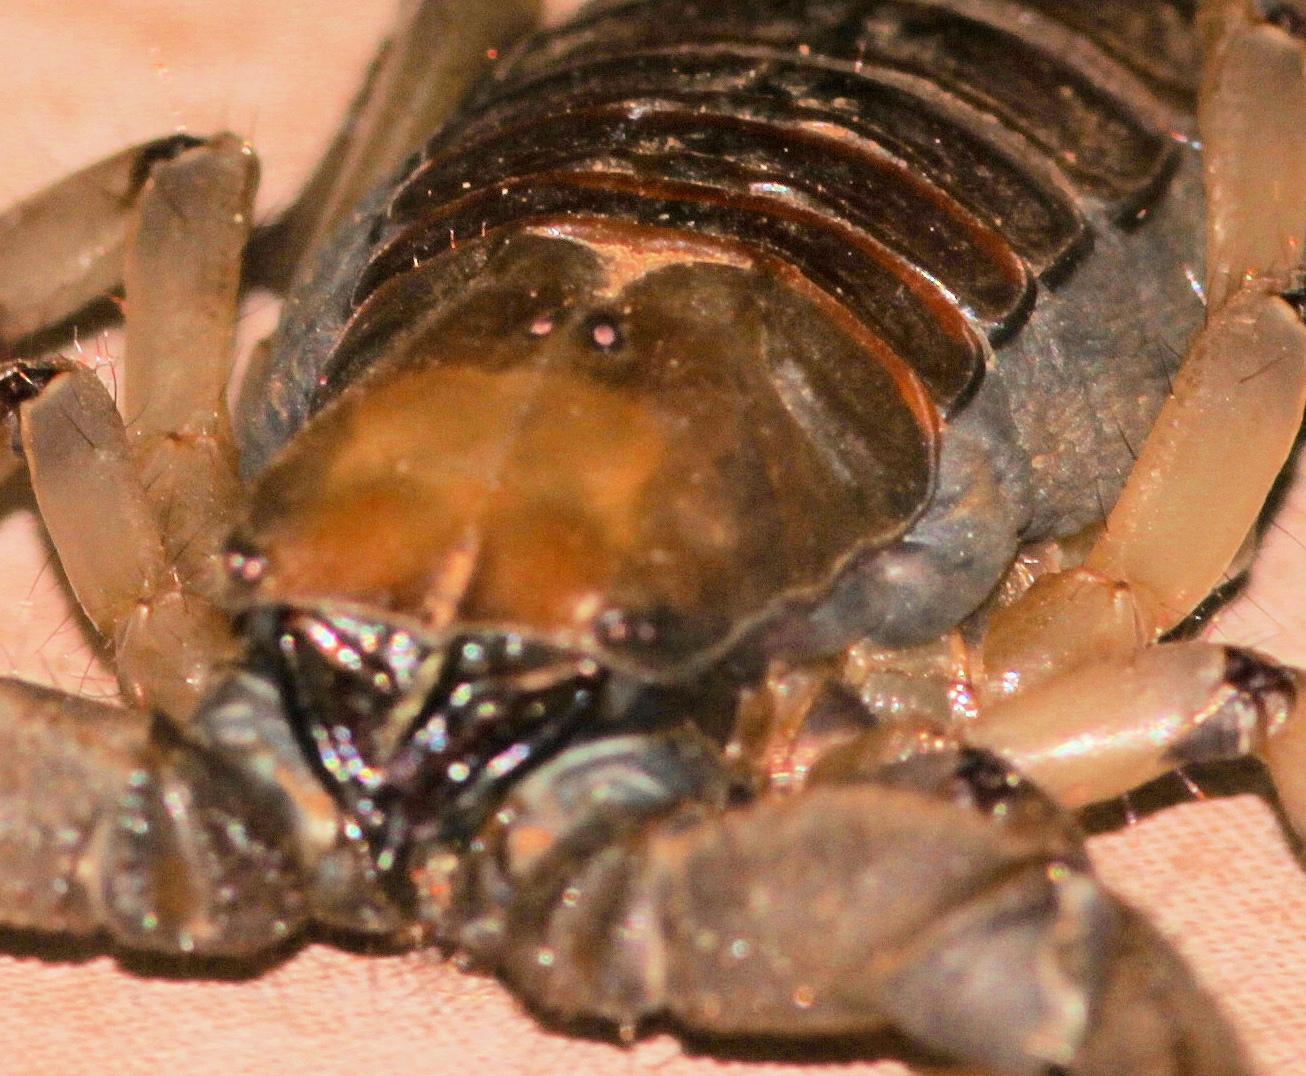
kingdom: Animalia
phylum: Arthropoda
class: Arachnida
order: Scorpiones
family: Scorpionidae
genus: Opistophthalmus
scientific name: Opistophthalmus glabrifrons
